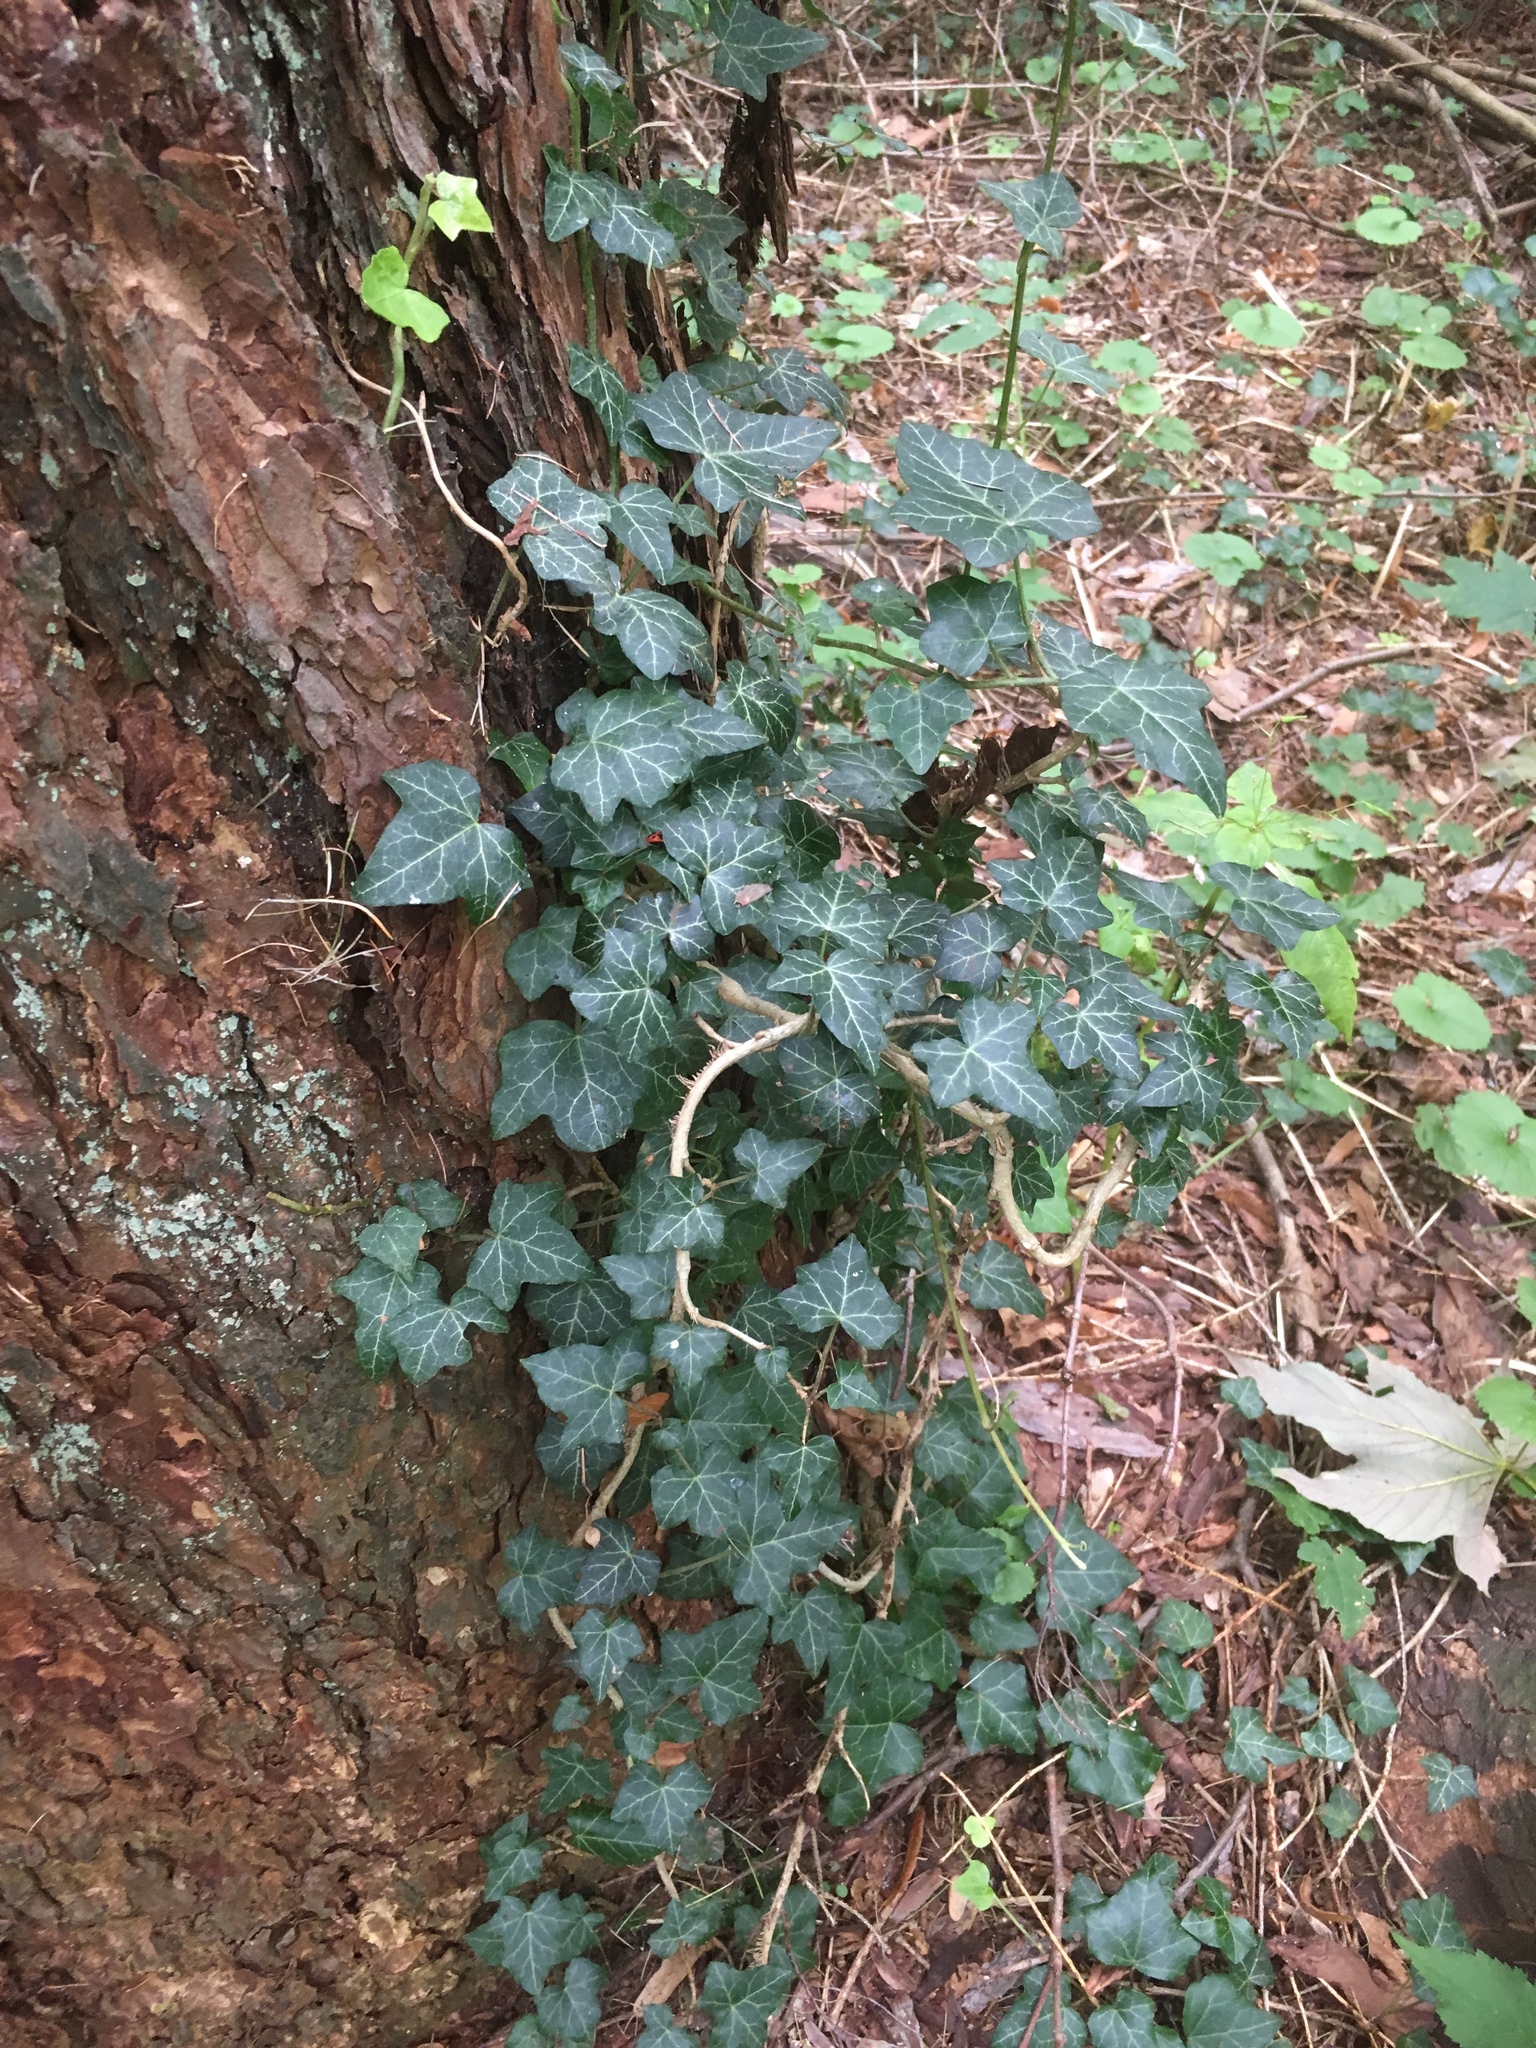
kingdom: Plantae
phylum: Tracheophyta
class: Magnoliopsida
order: Apiales
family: Araliaceae
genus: Hedera
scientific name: Hedera helix
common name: Ivy
